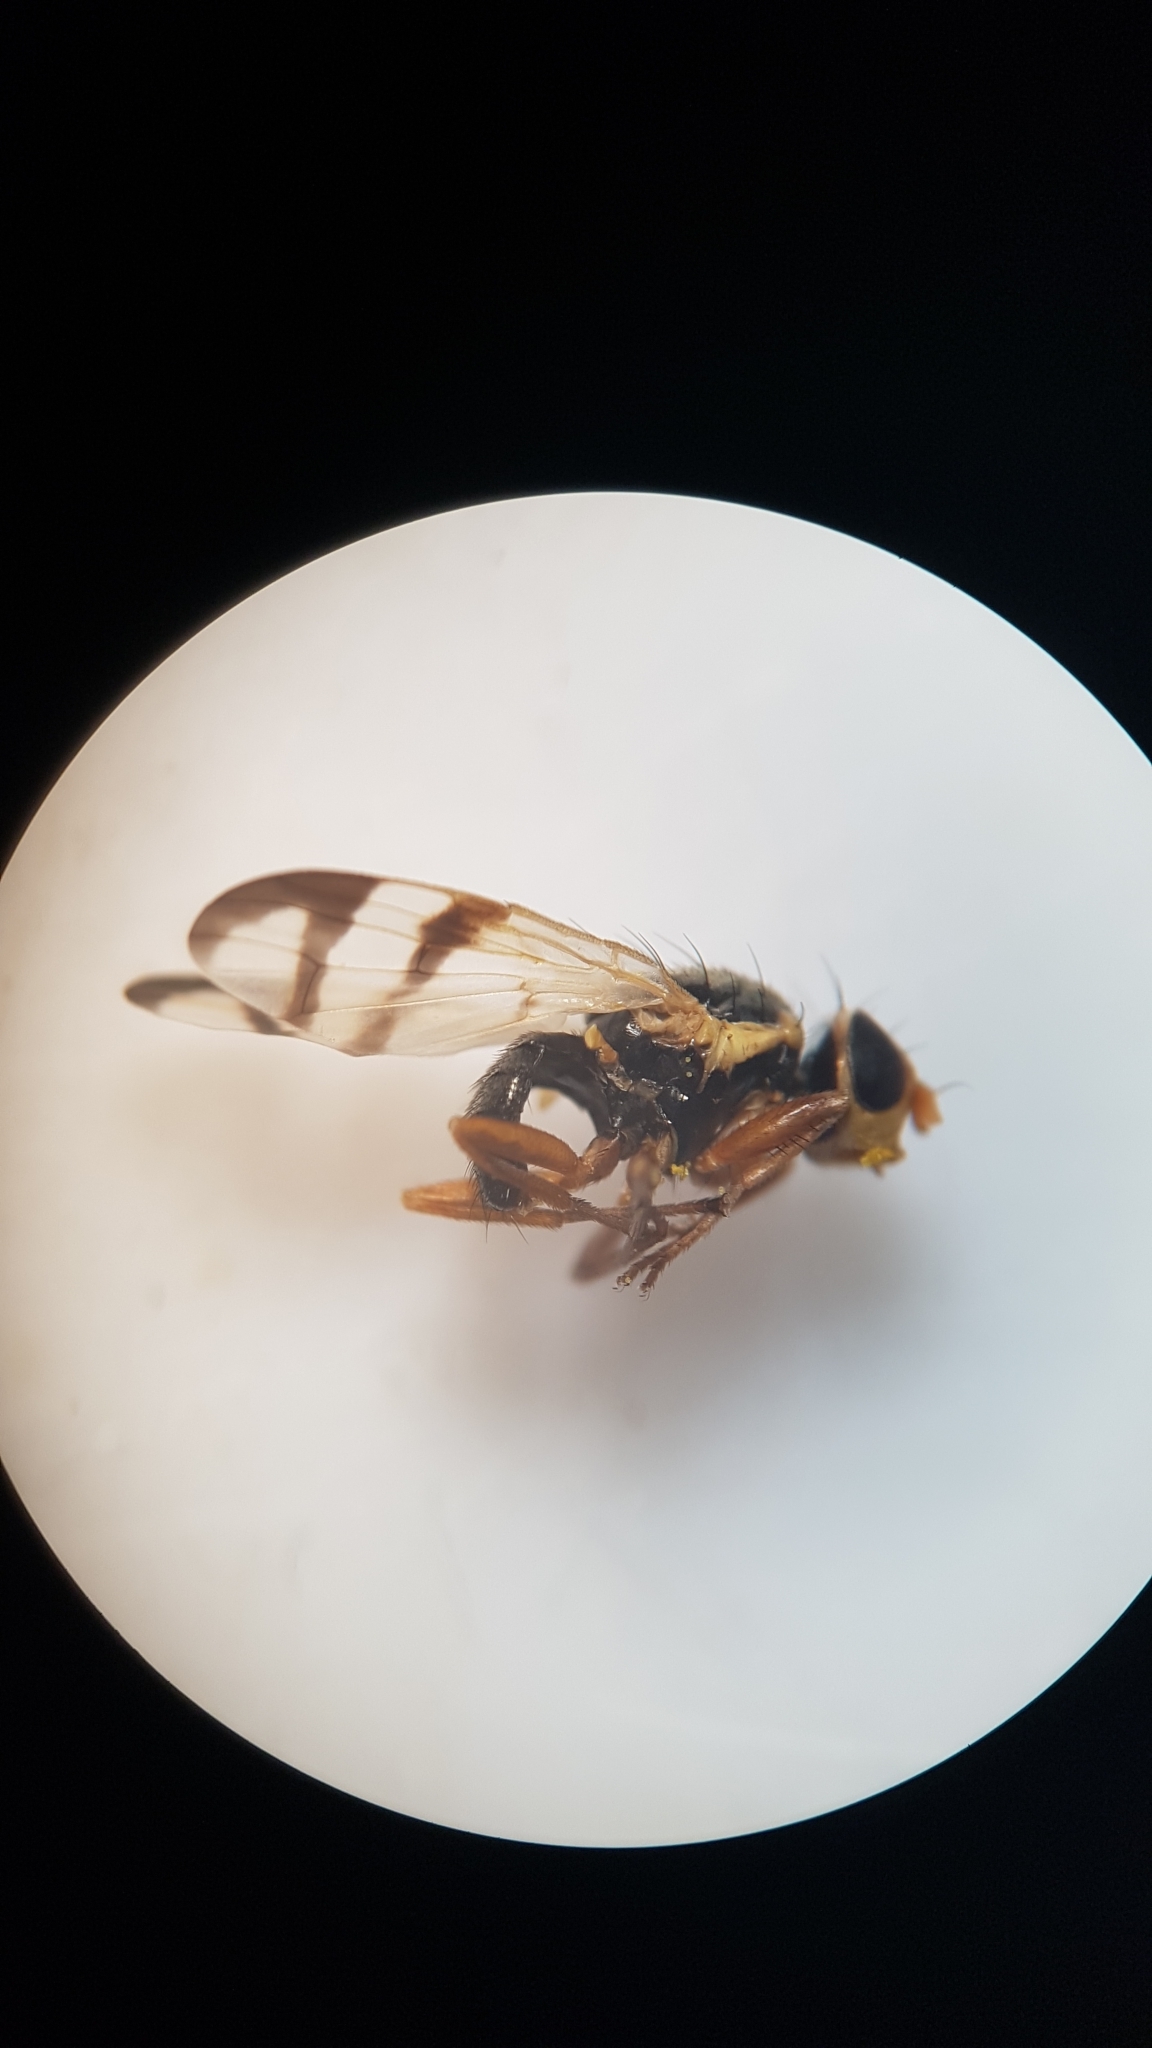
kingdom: Animalia
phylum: Arthropoda
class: Insecta
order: Diptera
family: Tephritidae
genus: Urophora
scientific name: Urophora stylata
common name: Fruit fly
